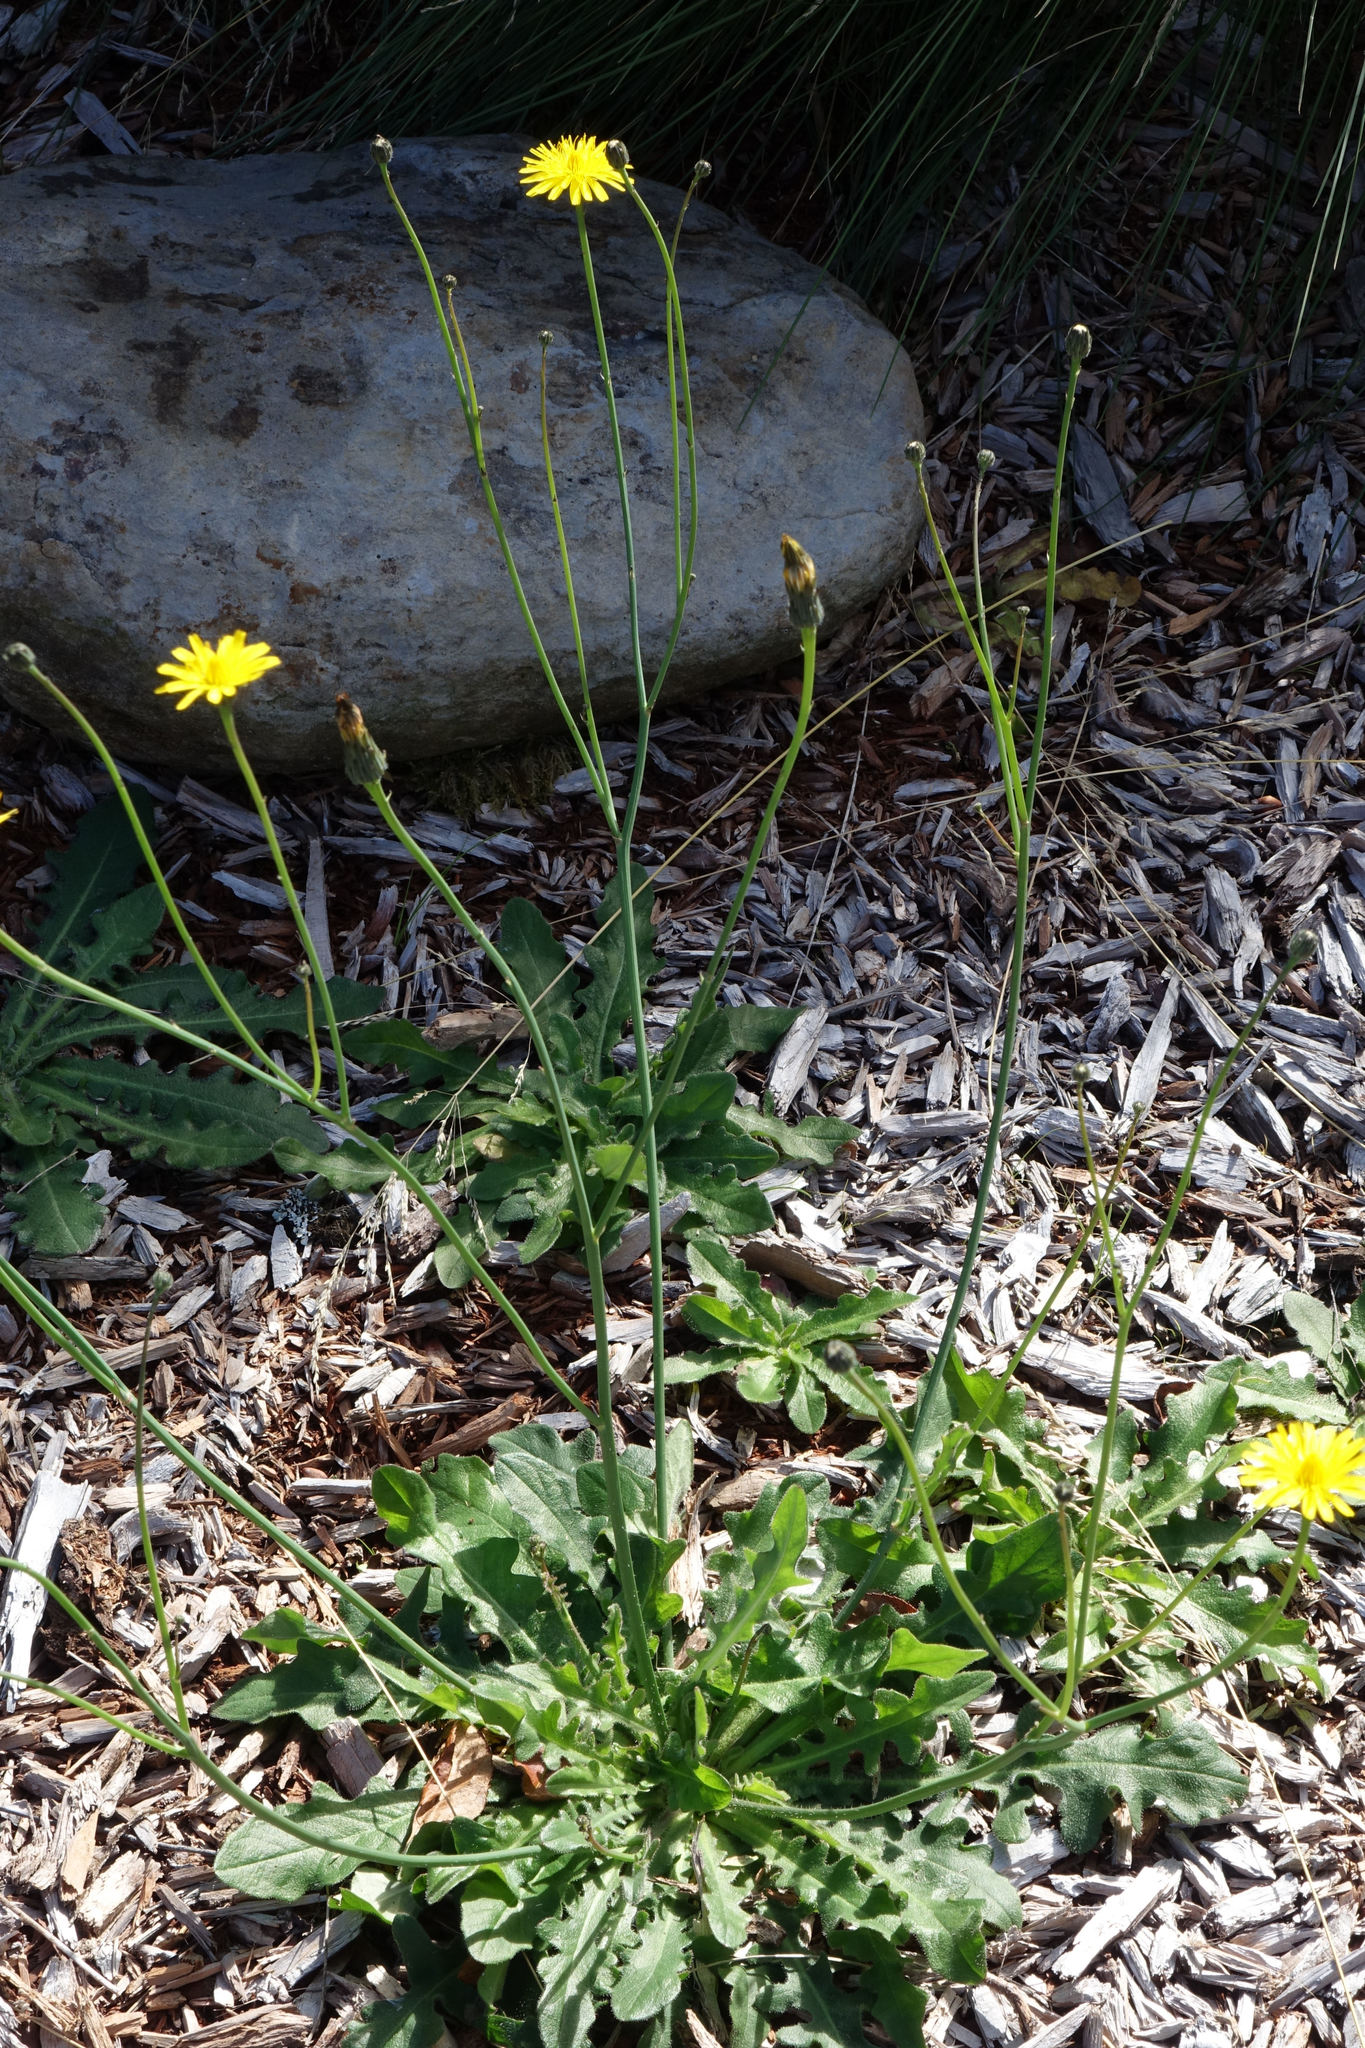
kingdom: Plantae
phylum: Tracheophyta
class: Magnoliopsida
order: Asterales
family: Asteraceae
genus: Hypochaeris
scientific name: Hypochaeris radicata
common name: Flatweed
